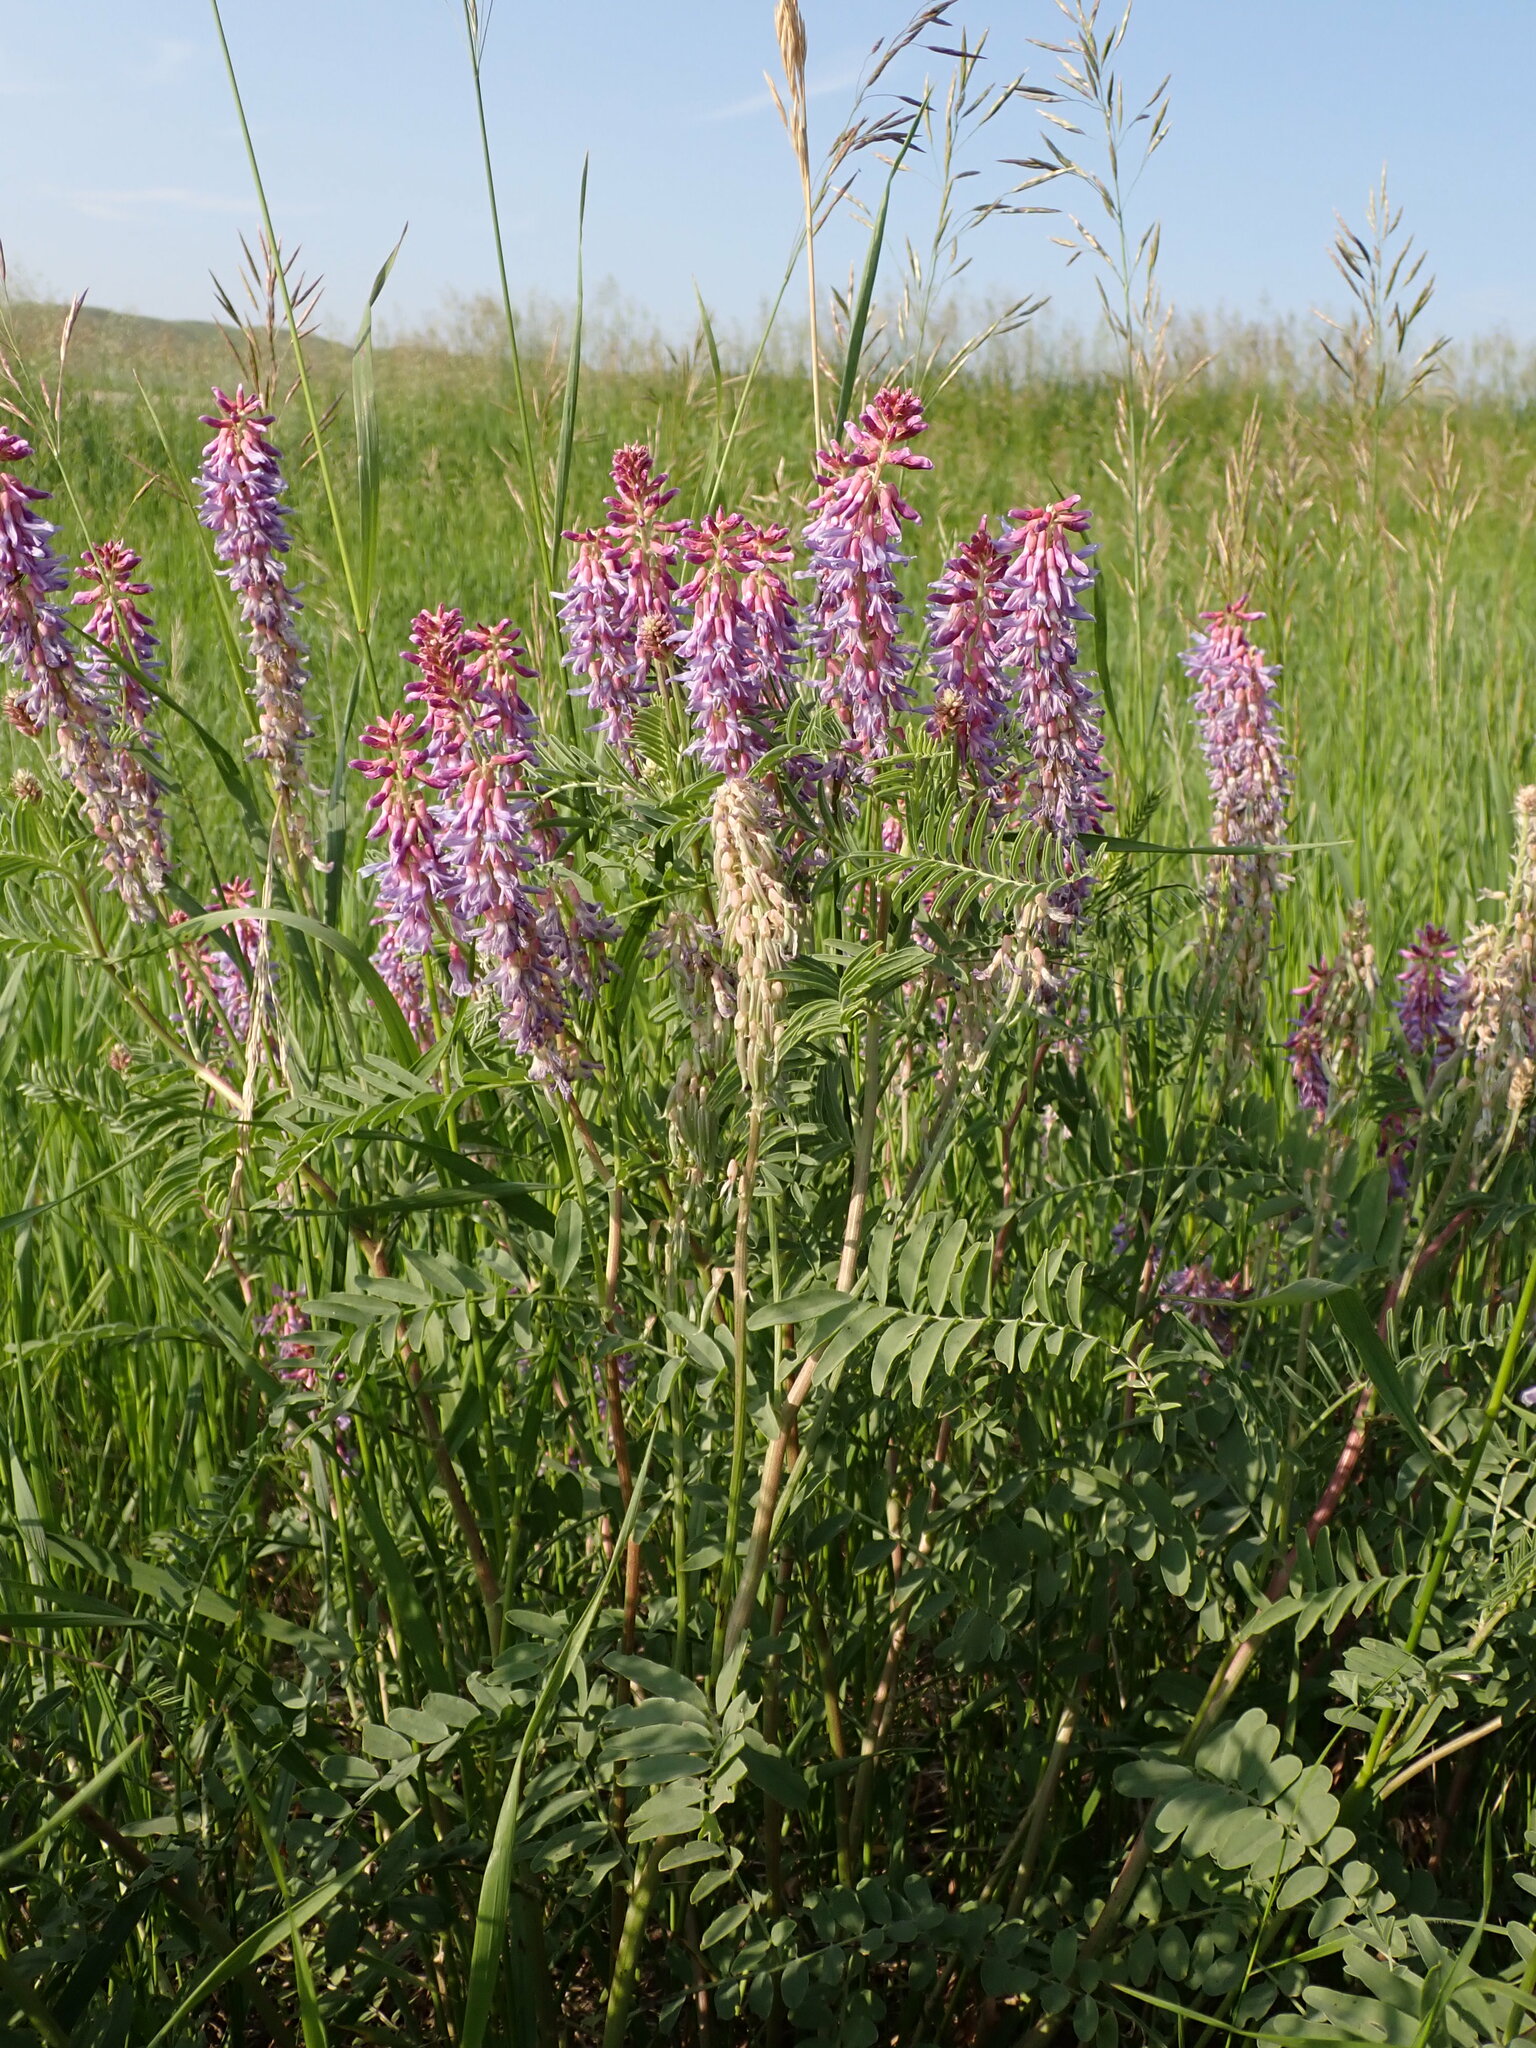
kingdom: Plantae
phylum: Tracheophyta
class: Magnoliopsida
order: Fabales
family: Fabaceae
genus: Astragalus
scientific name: Astragalus bisulcatus
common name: Two-groove milk-vetch
